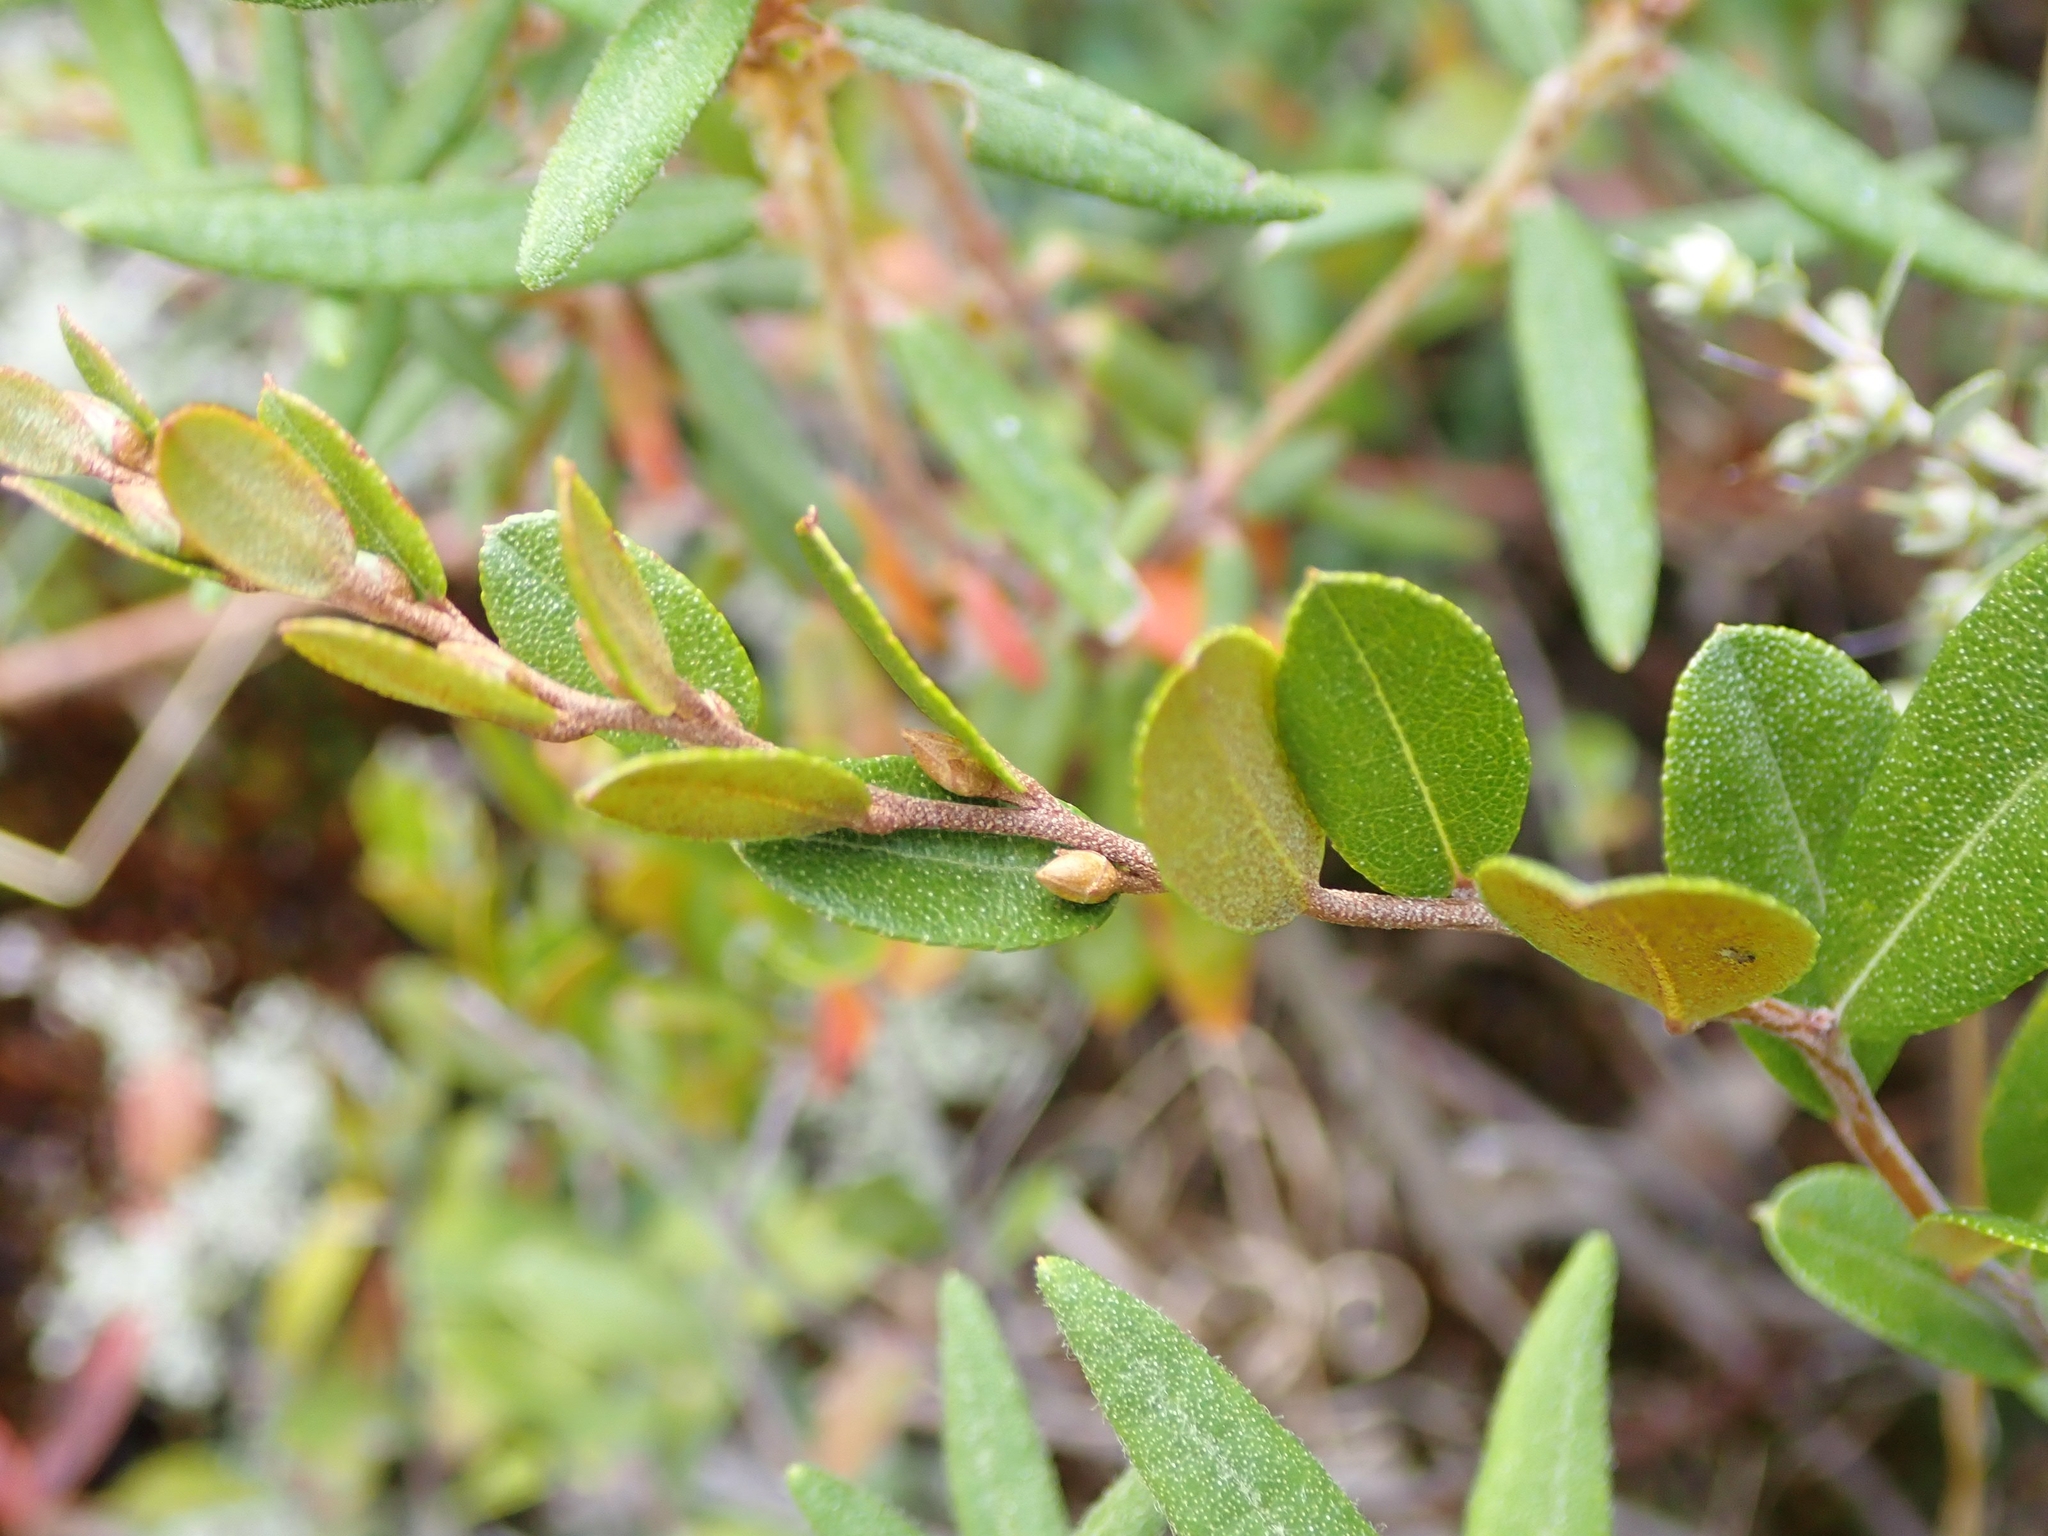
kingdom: Plantae
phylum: Tracheophyta
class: Magnoliopsida
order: Ericales
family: Ericaceae
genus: Chamaedaphne
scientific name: Chamaedaphne calyculata
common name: Leatherleaf
